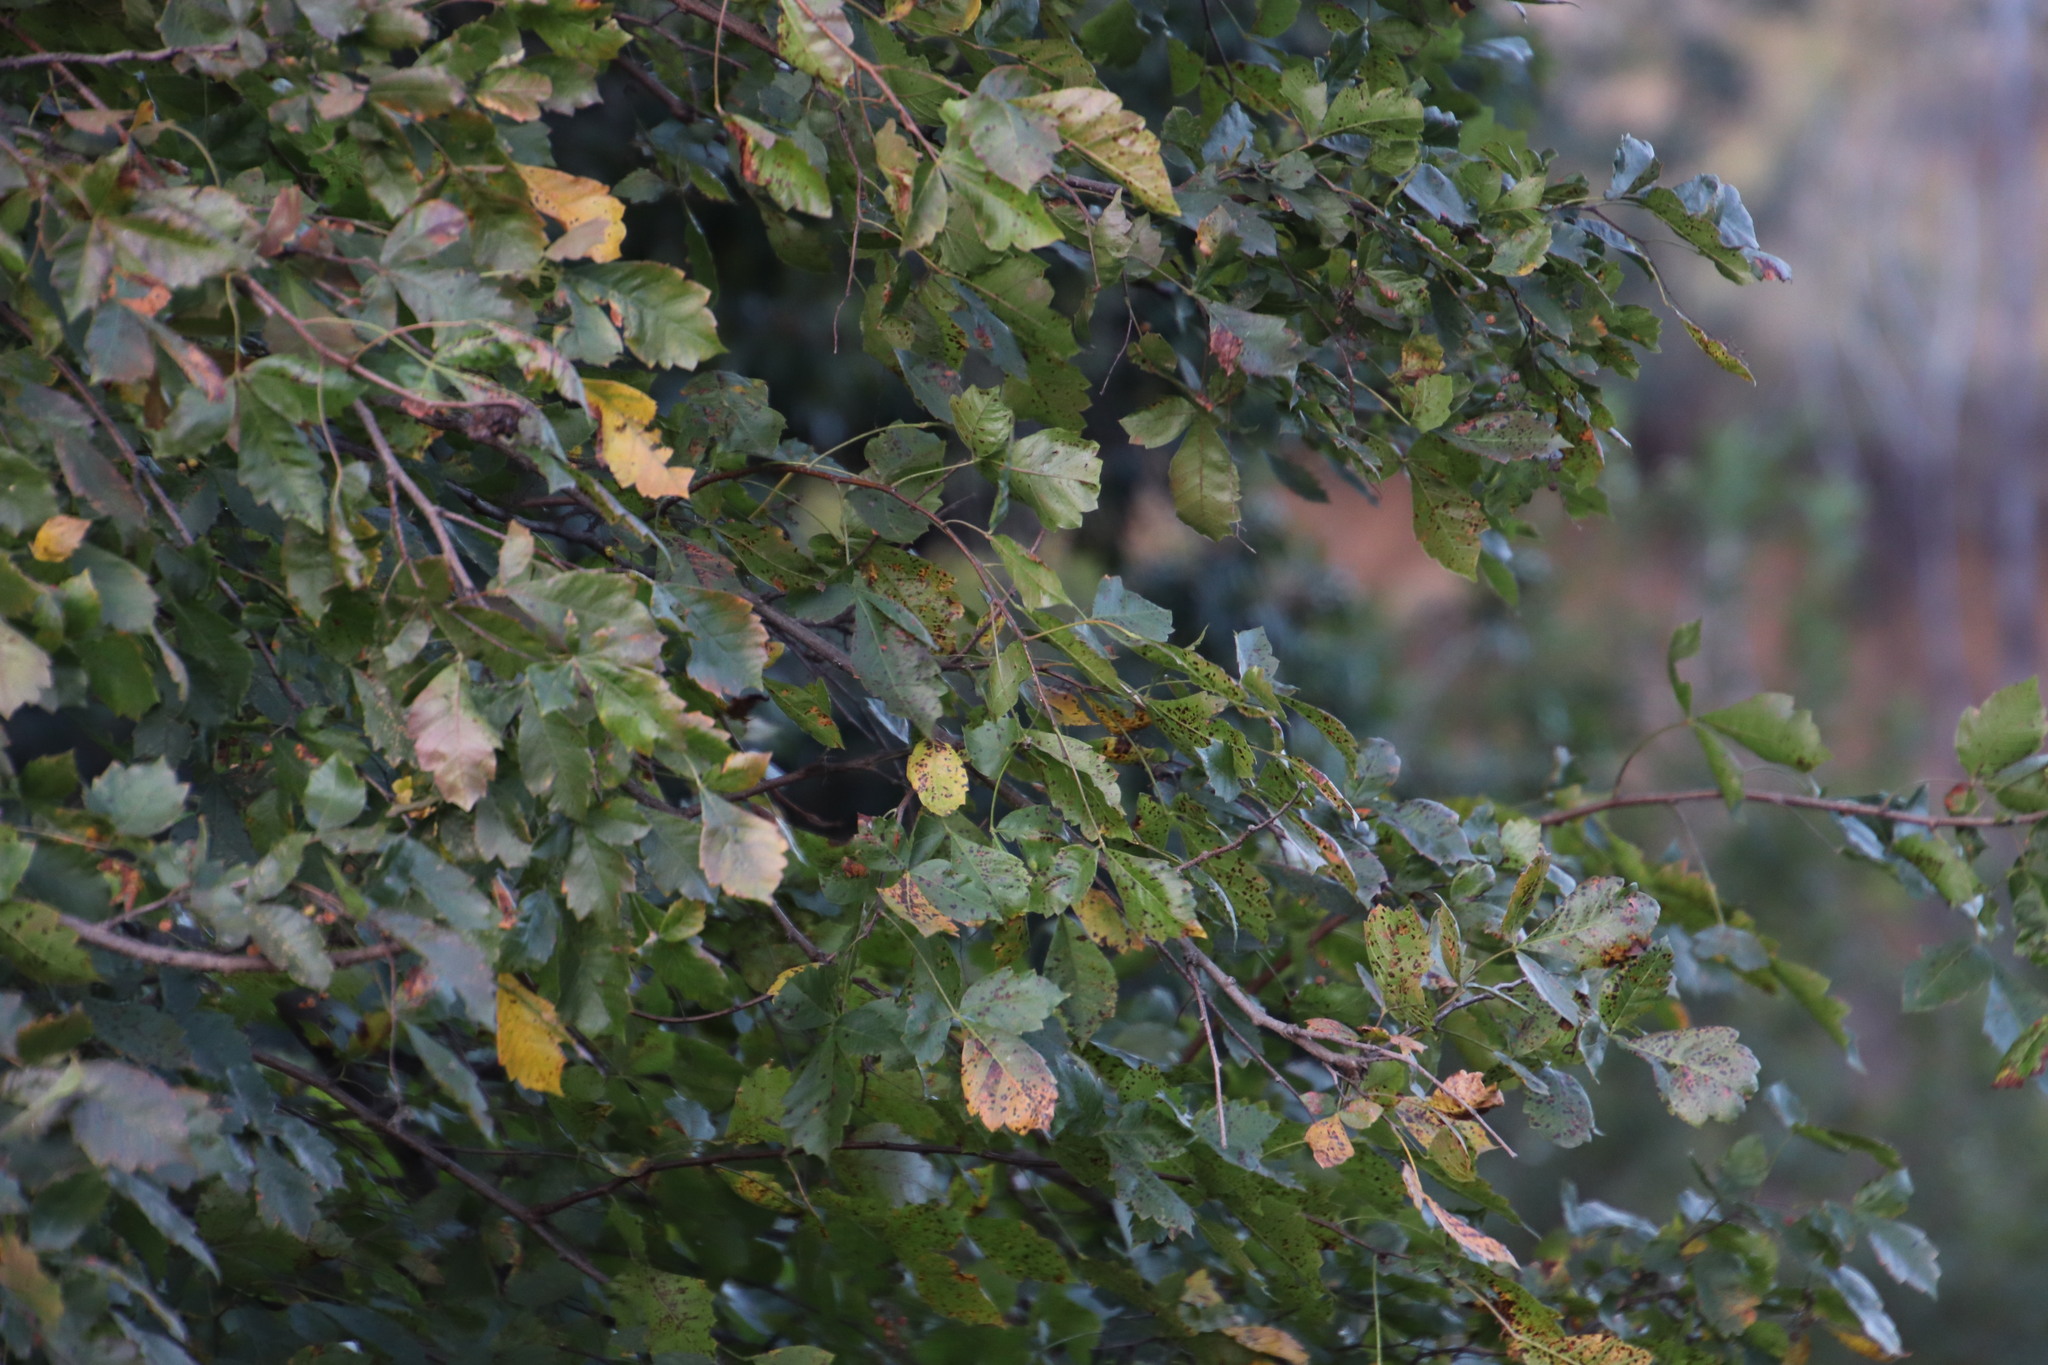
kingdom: Plantae
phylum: Tracheophyta
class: Magnoliopsida
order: Sapindales
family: Anacardiaceae
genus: Searsia
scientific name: Searsia dentata
